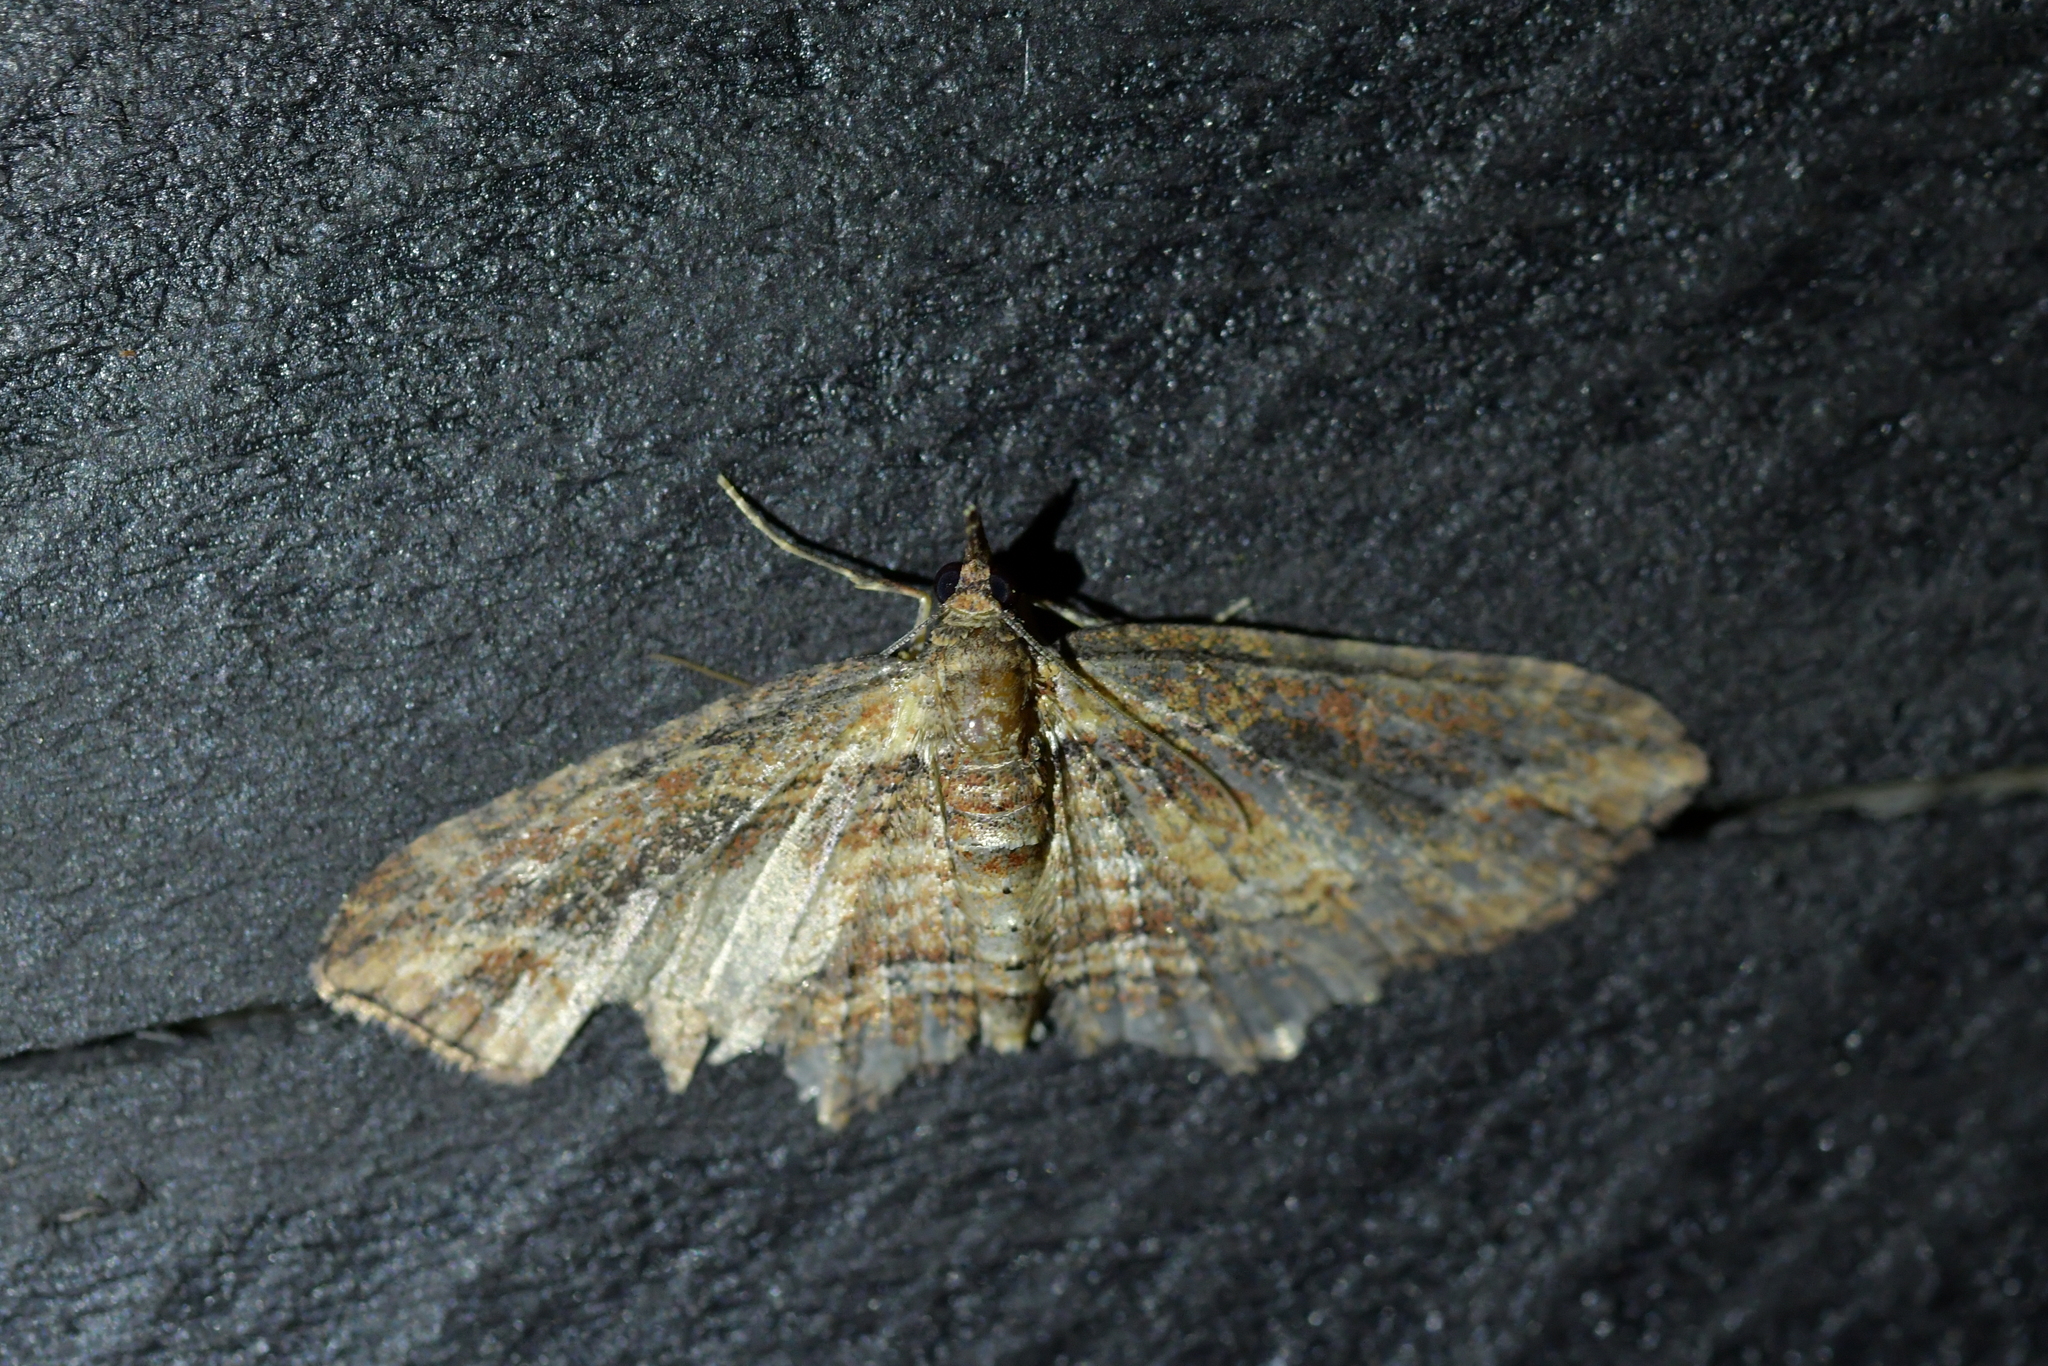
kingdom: Animalia
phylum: Arthropoda
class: Insecta
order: Lepidoptera
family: Geometridae
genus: Chloroclystis
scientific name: Chloroclystis filata
